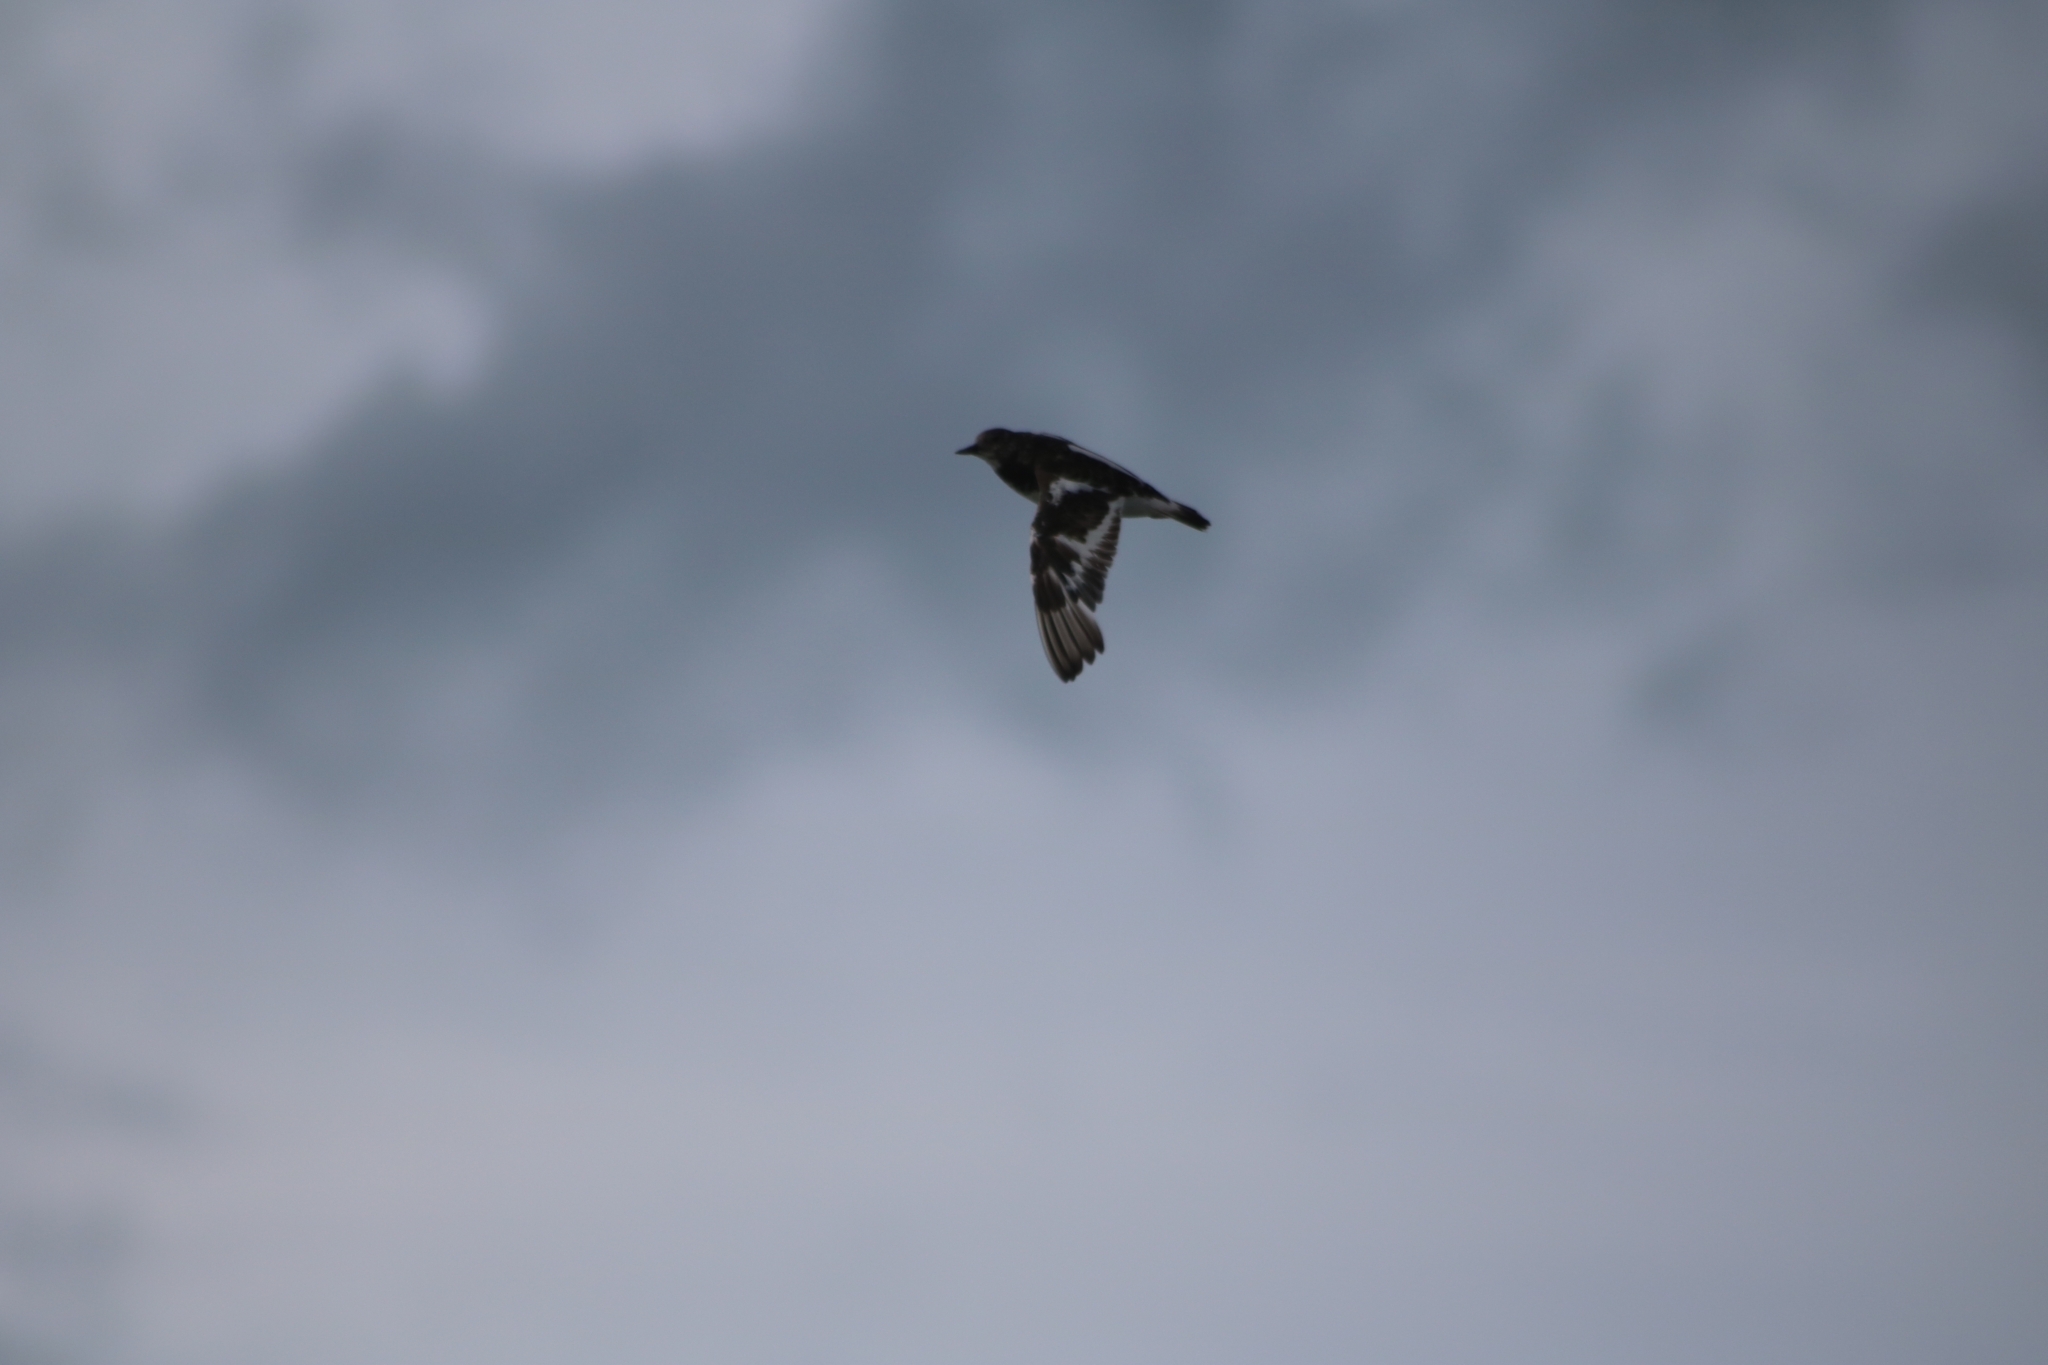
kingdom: Animalia
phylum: Chordata
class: Aves
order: Charadriiformes
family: Scolopacidae
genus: Arenaria
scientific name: Arenaria interpres
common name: Ruddy turnstone
